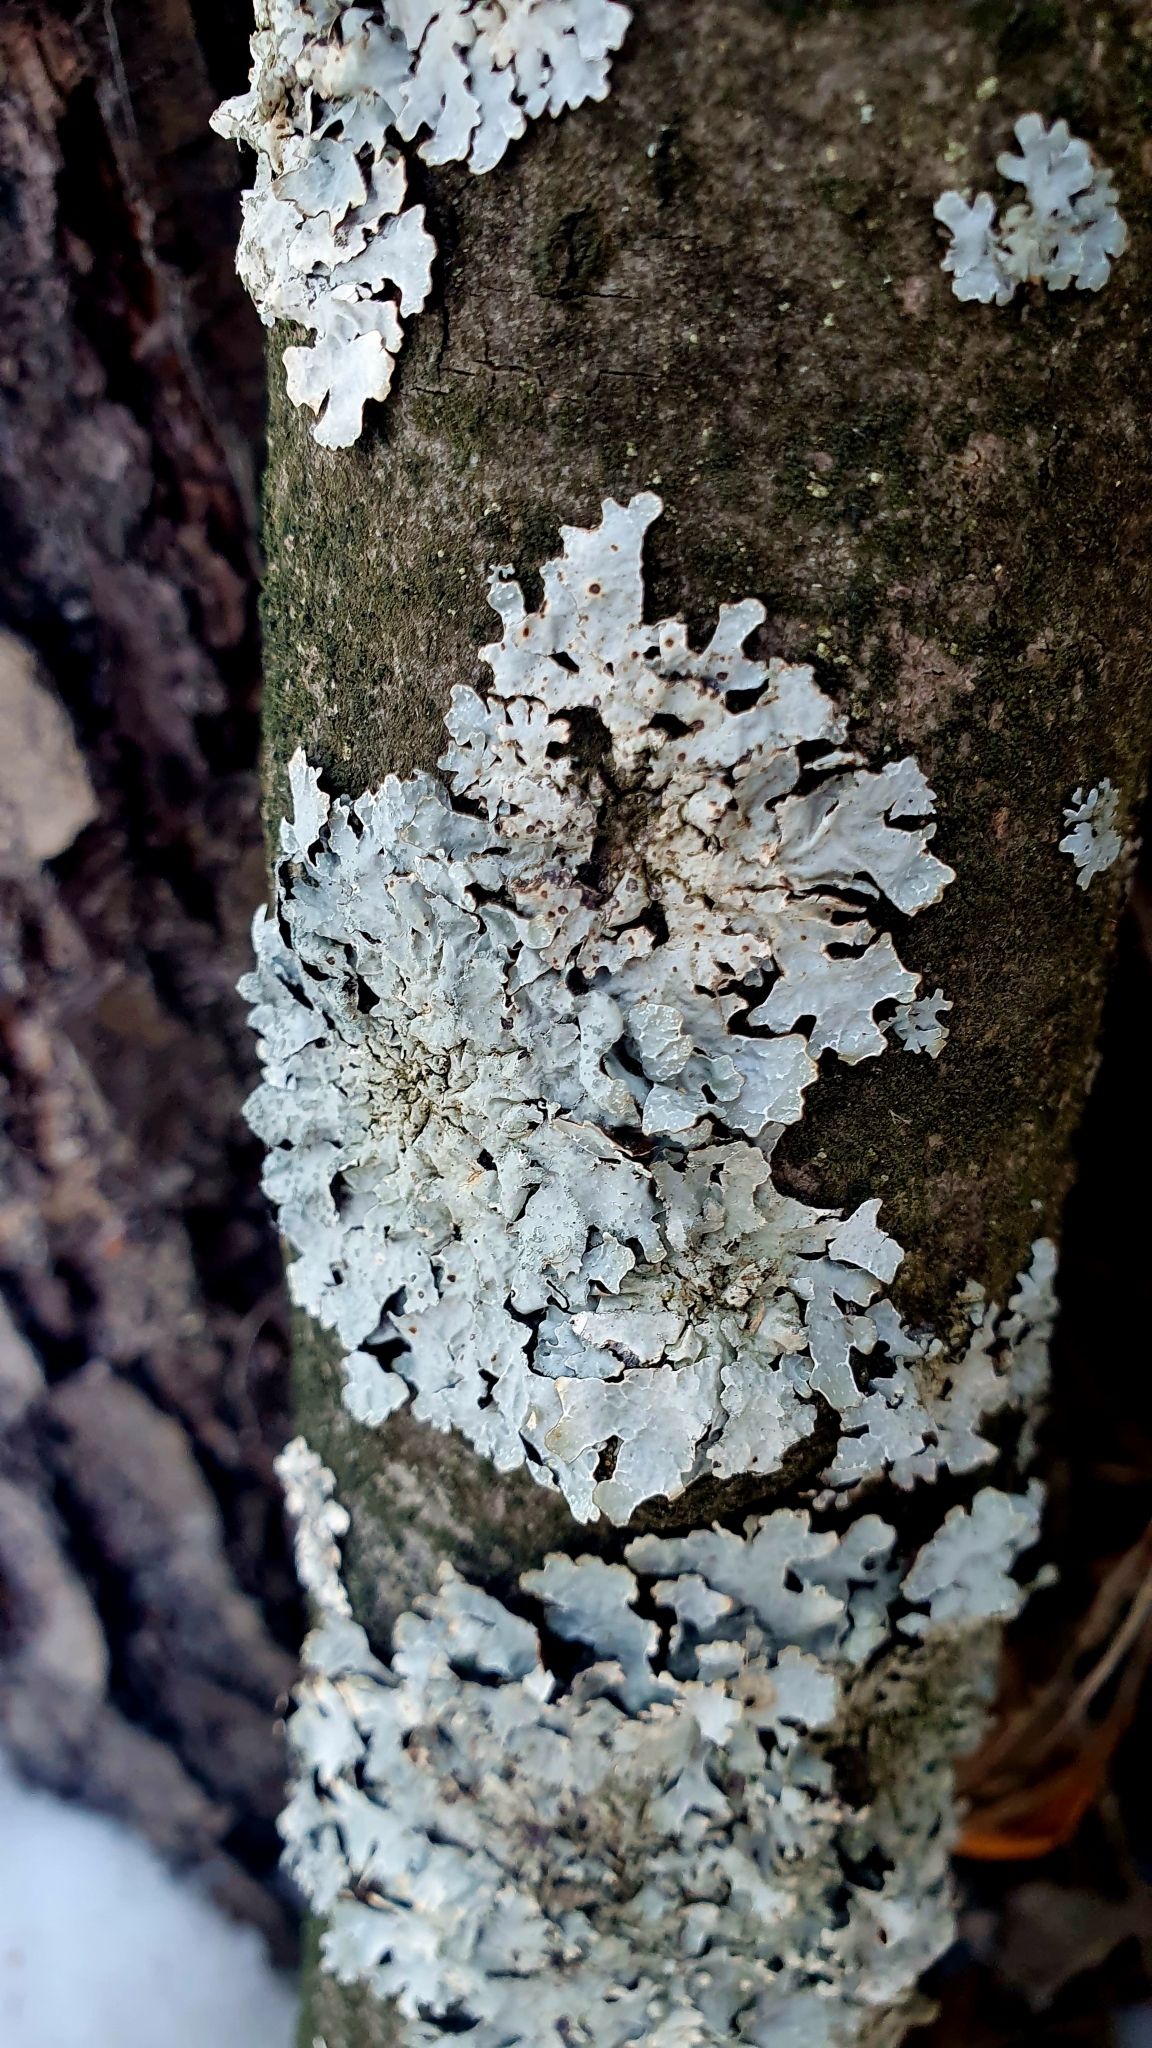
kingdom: Fungi
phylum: Ascomycota
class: Lecanoromycetes
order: Lecanorales
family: Parmeliaceae
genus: Parmelia
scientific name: Parmelia sulcata
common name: Netted shield lichen
